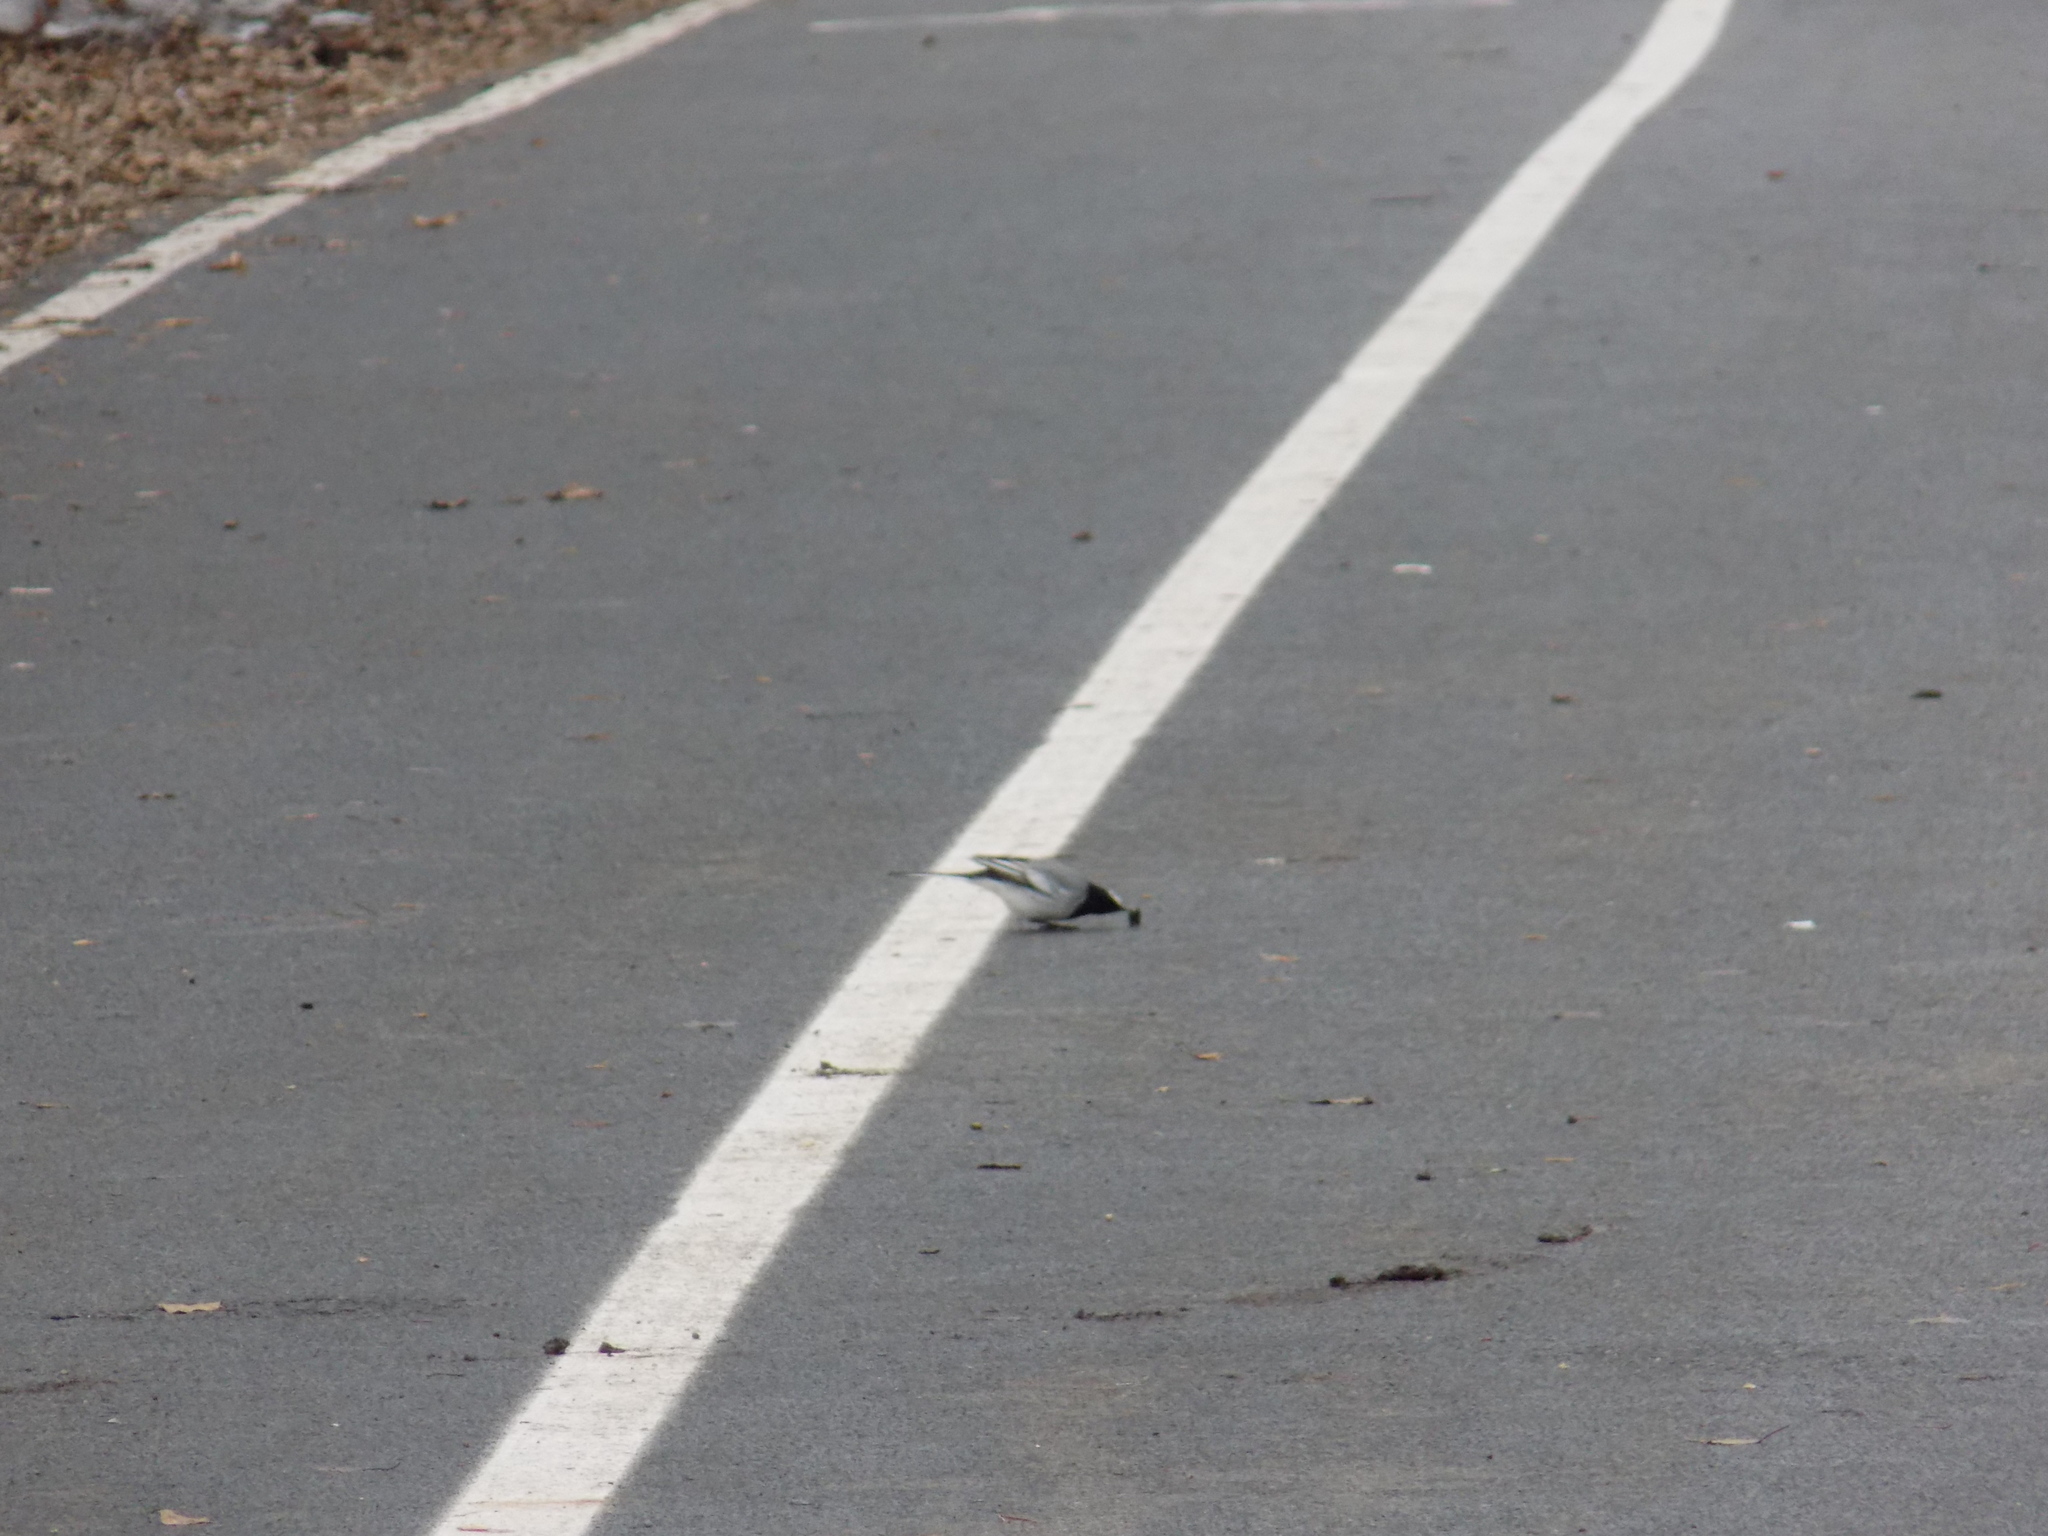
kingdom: Animalia
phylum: Chordata
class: Aves
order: Passeriformes
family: Motacillidae
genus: Motacilla
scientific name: Motacilla alba
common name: White wagtail
